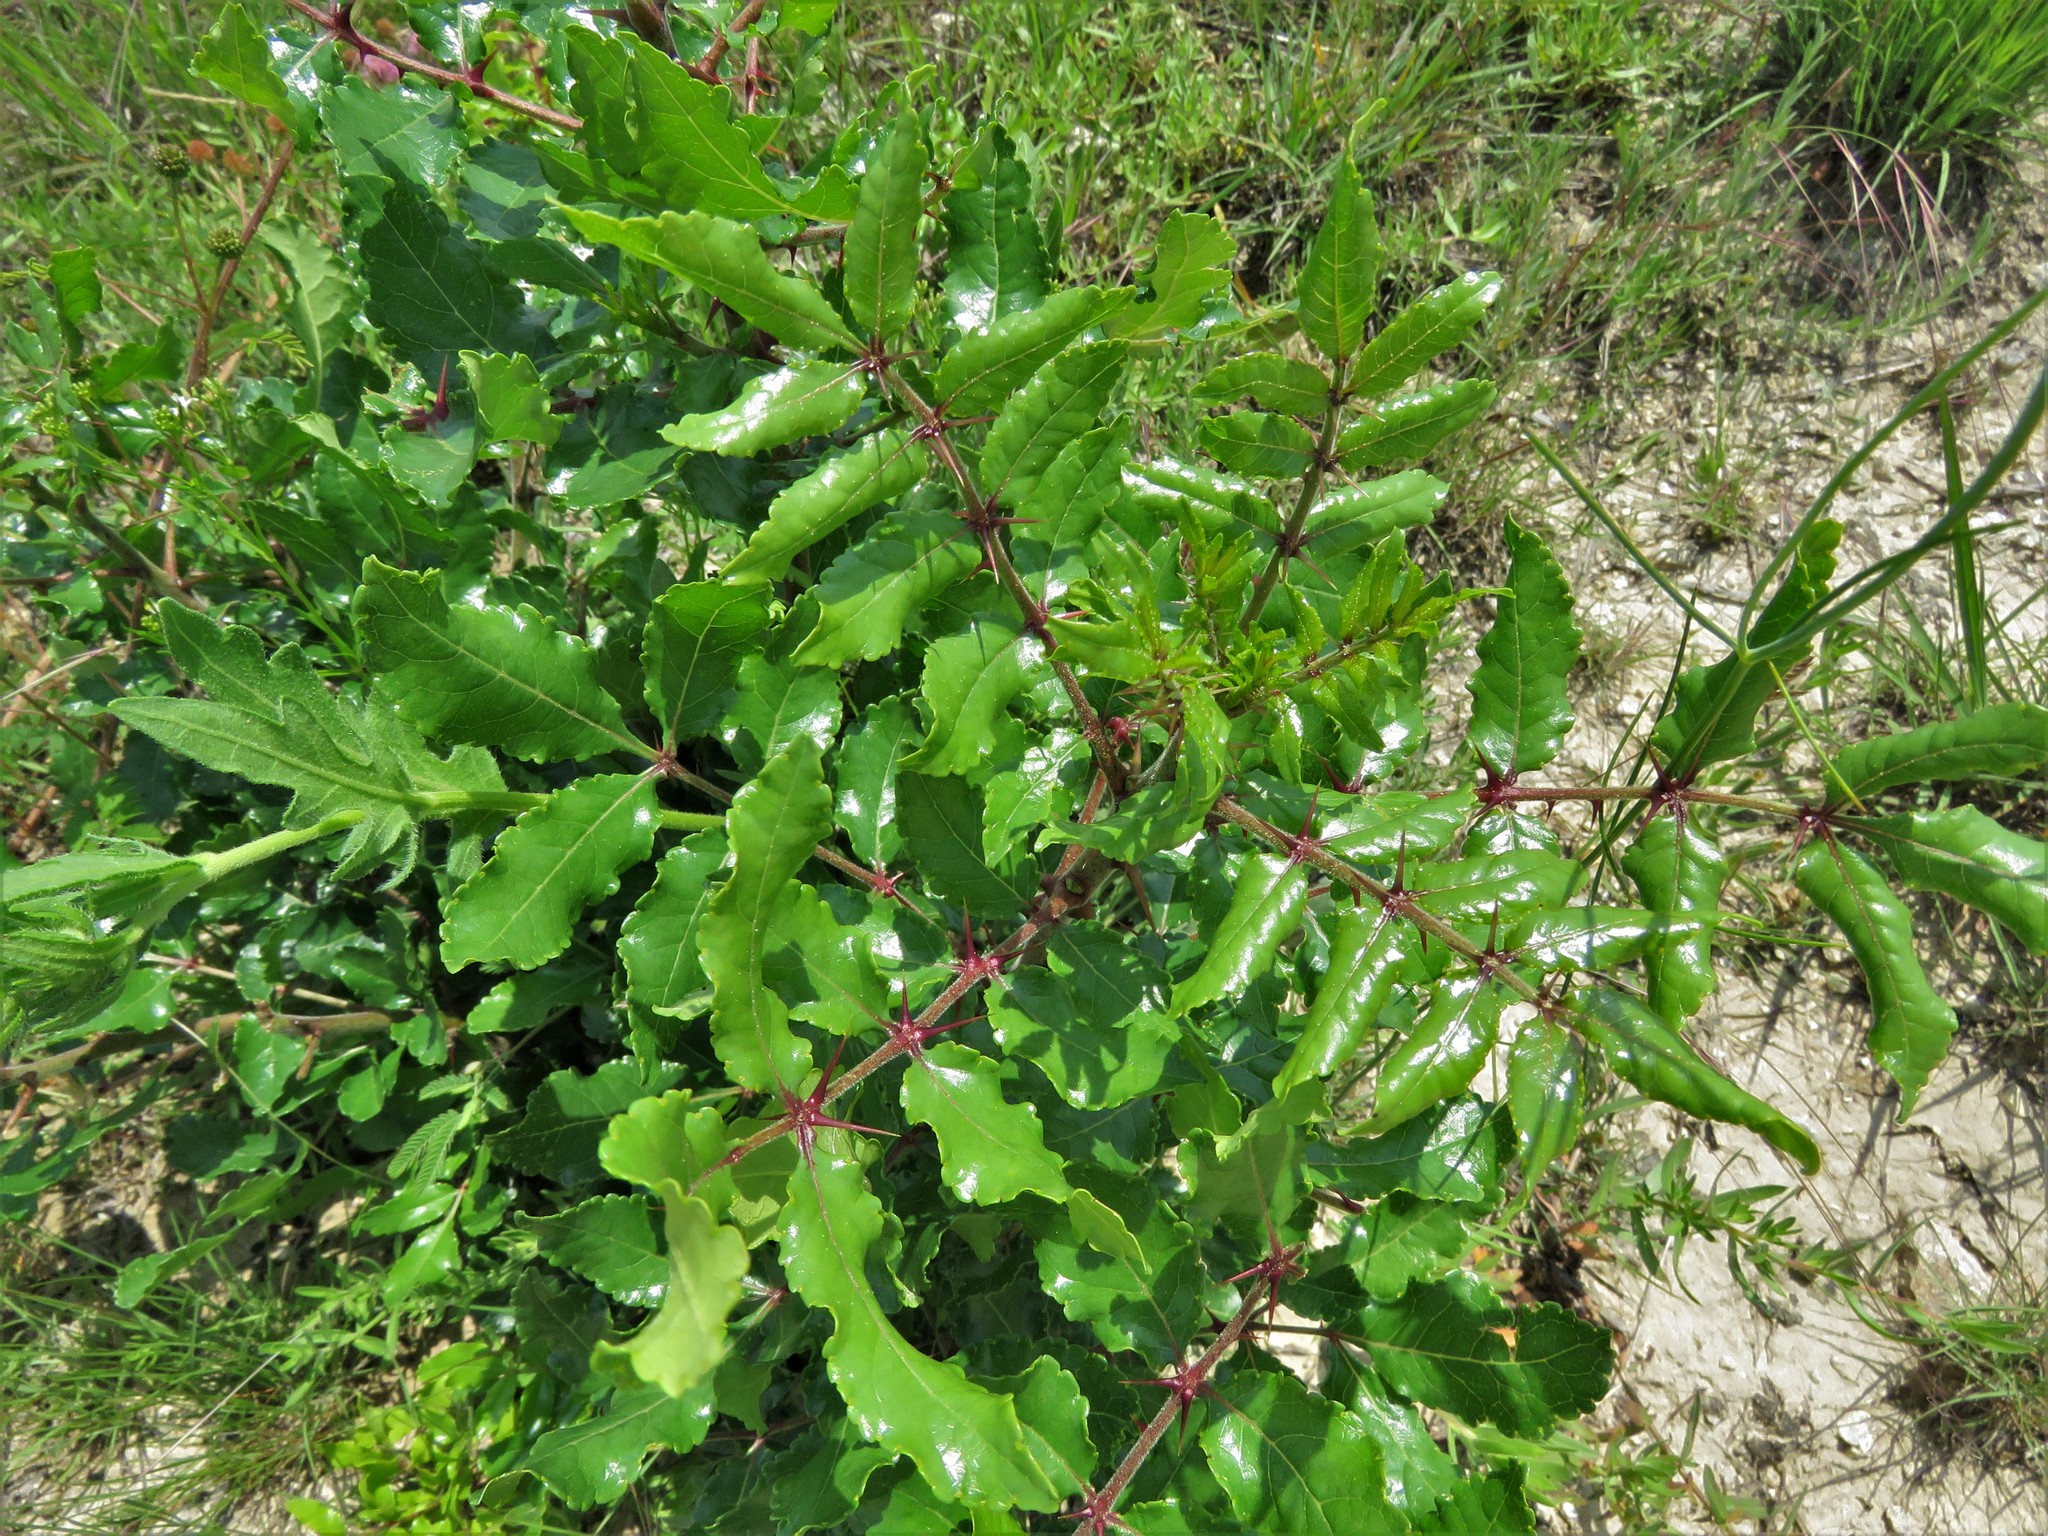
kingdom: Plantae
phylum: Tracheophyta
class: Magnoliopsida
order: Sapindales
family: Rutaceae
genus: Zanthoxylum
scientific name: Zanthoxylum clava-herculis
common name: Hercules'-club
